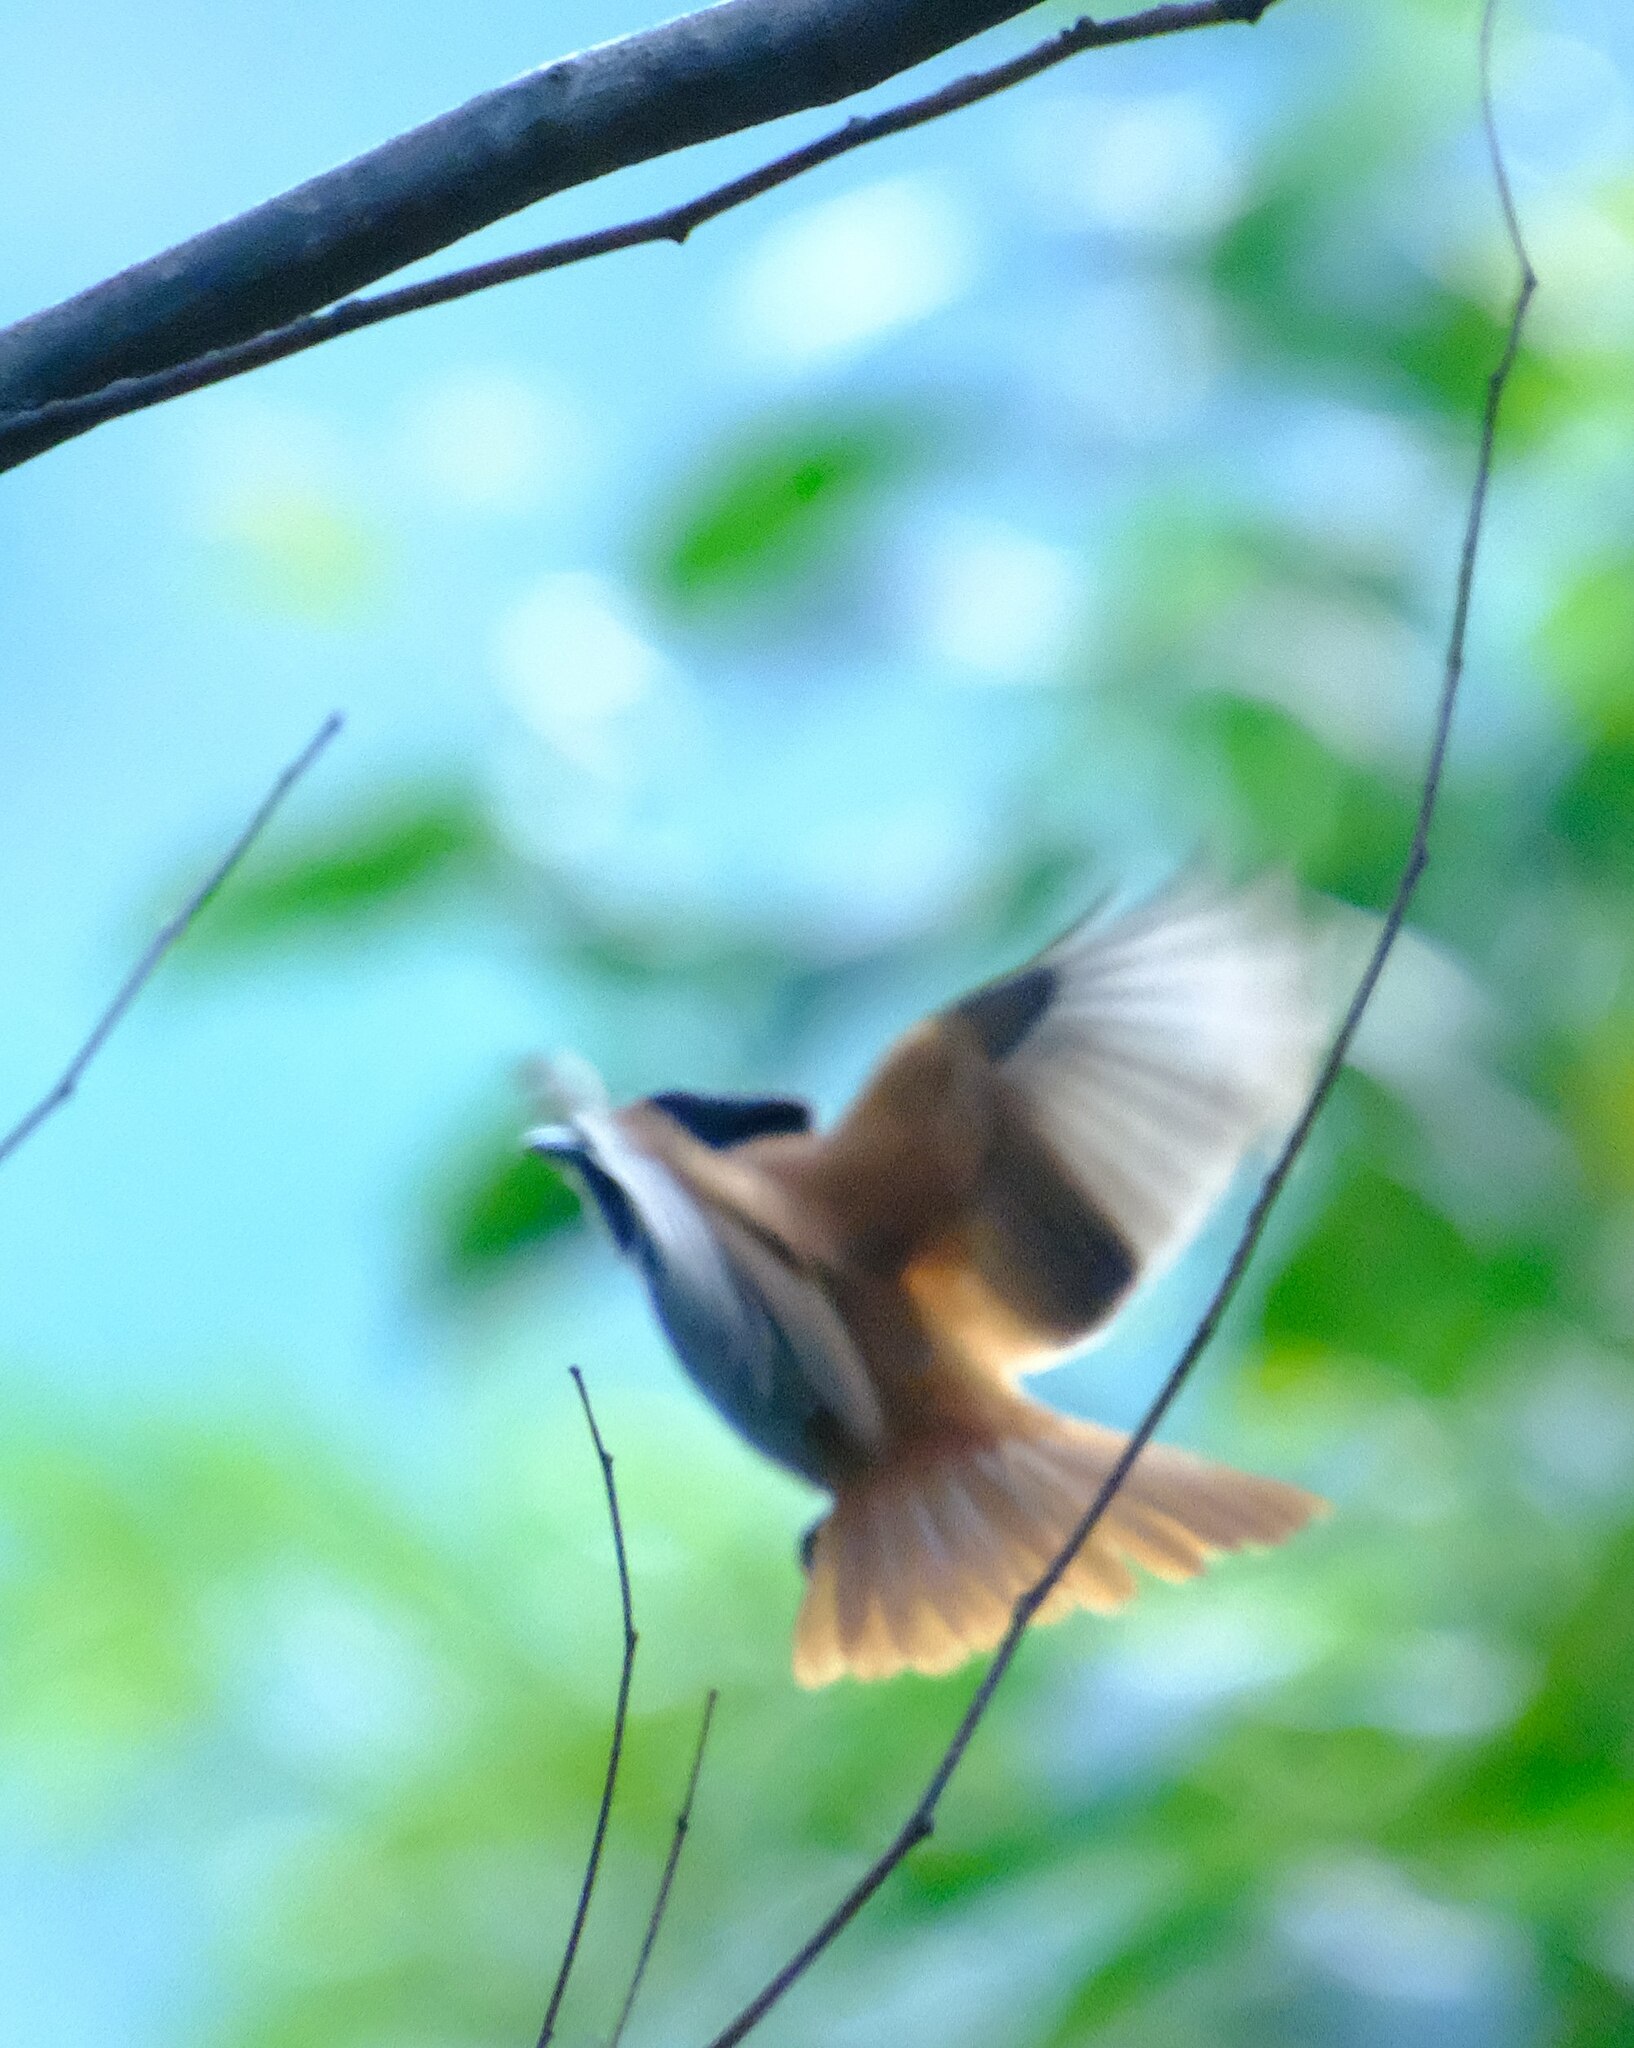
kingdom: Animalia
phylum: Chordata
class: Aves
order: Passeriformes
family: Monarchidae
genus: Terpsiphone
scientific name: Terpsiphone viridis
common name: African paradise flycatcher
